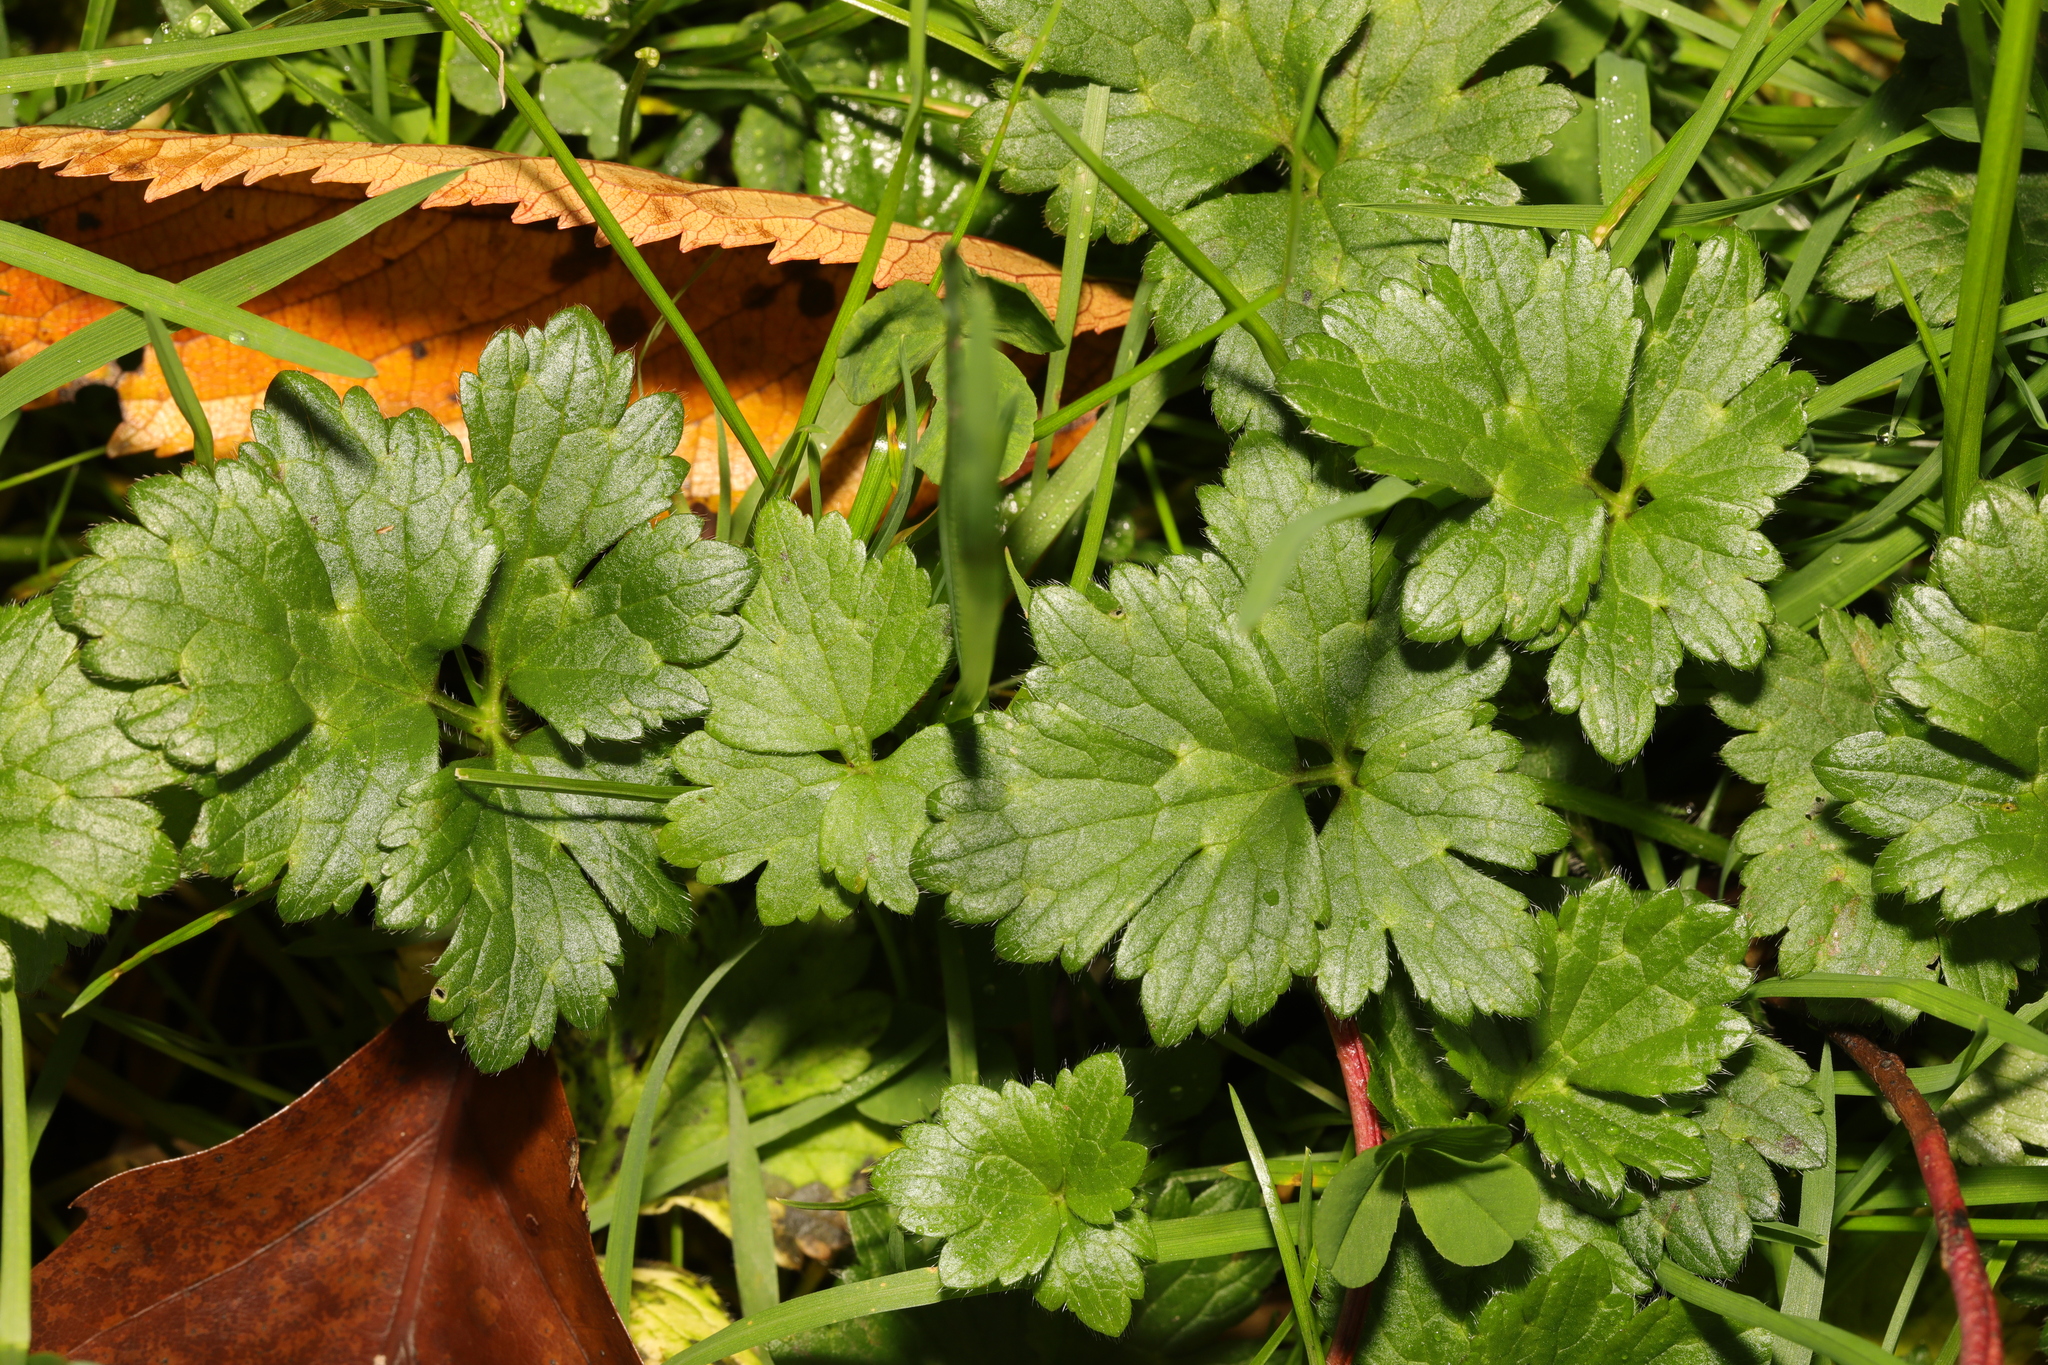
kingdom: Plantae
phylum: Tracheophyta
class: Magnoliopsida
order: Ranunculales
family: Ranunculaceae
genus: Ranunculus
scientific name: Ranunculus repens
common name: Creeping buttercup
